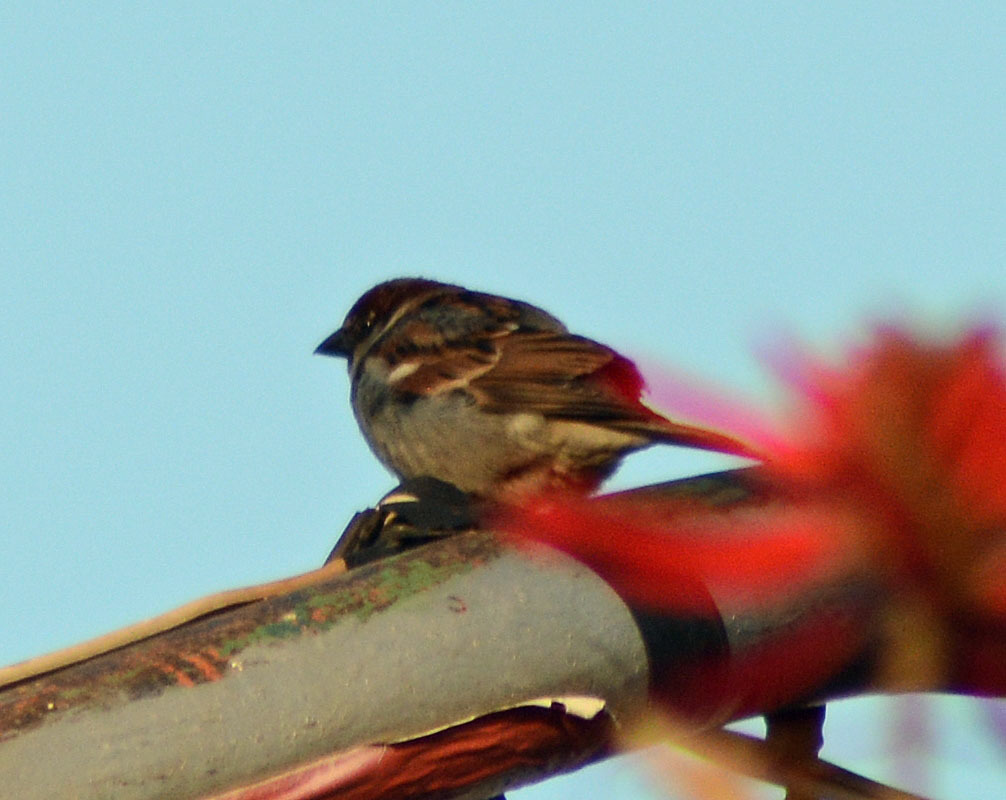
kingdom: Animalia
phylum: Chordata
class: Aves
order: Passeriformes
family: Passeridae
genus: Passer
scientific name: Passer domesticus
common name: House sparrow
